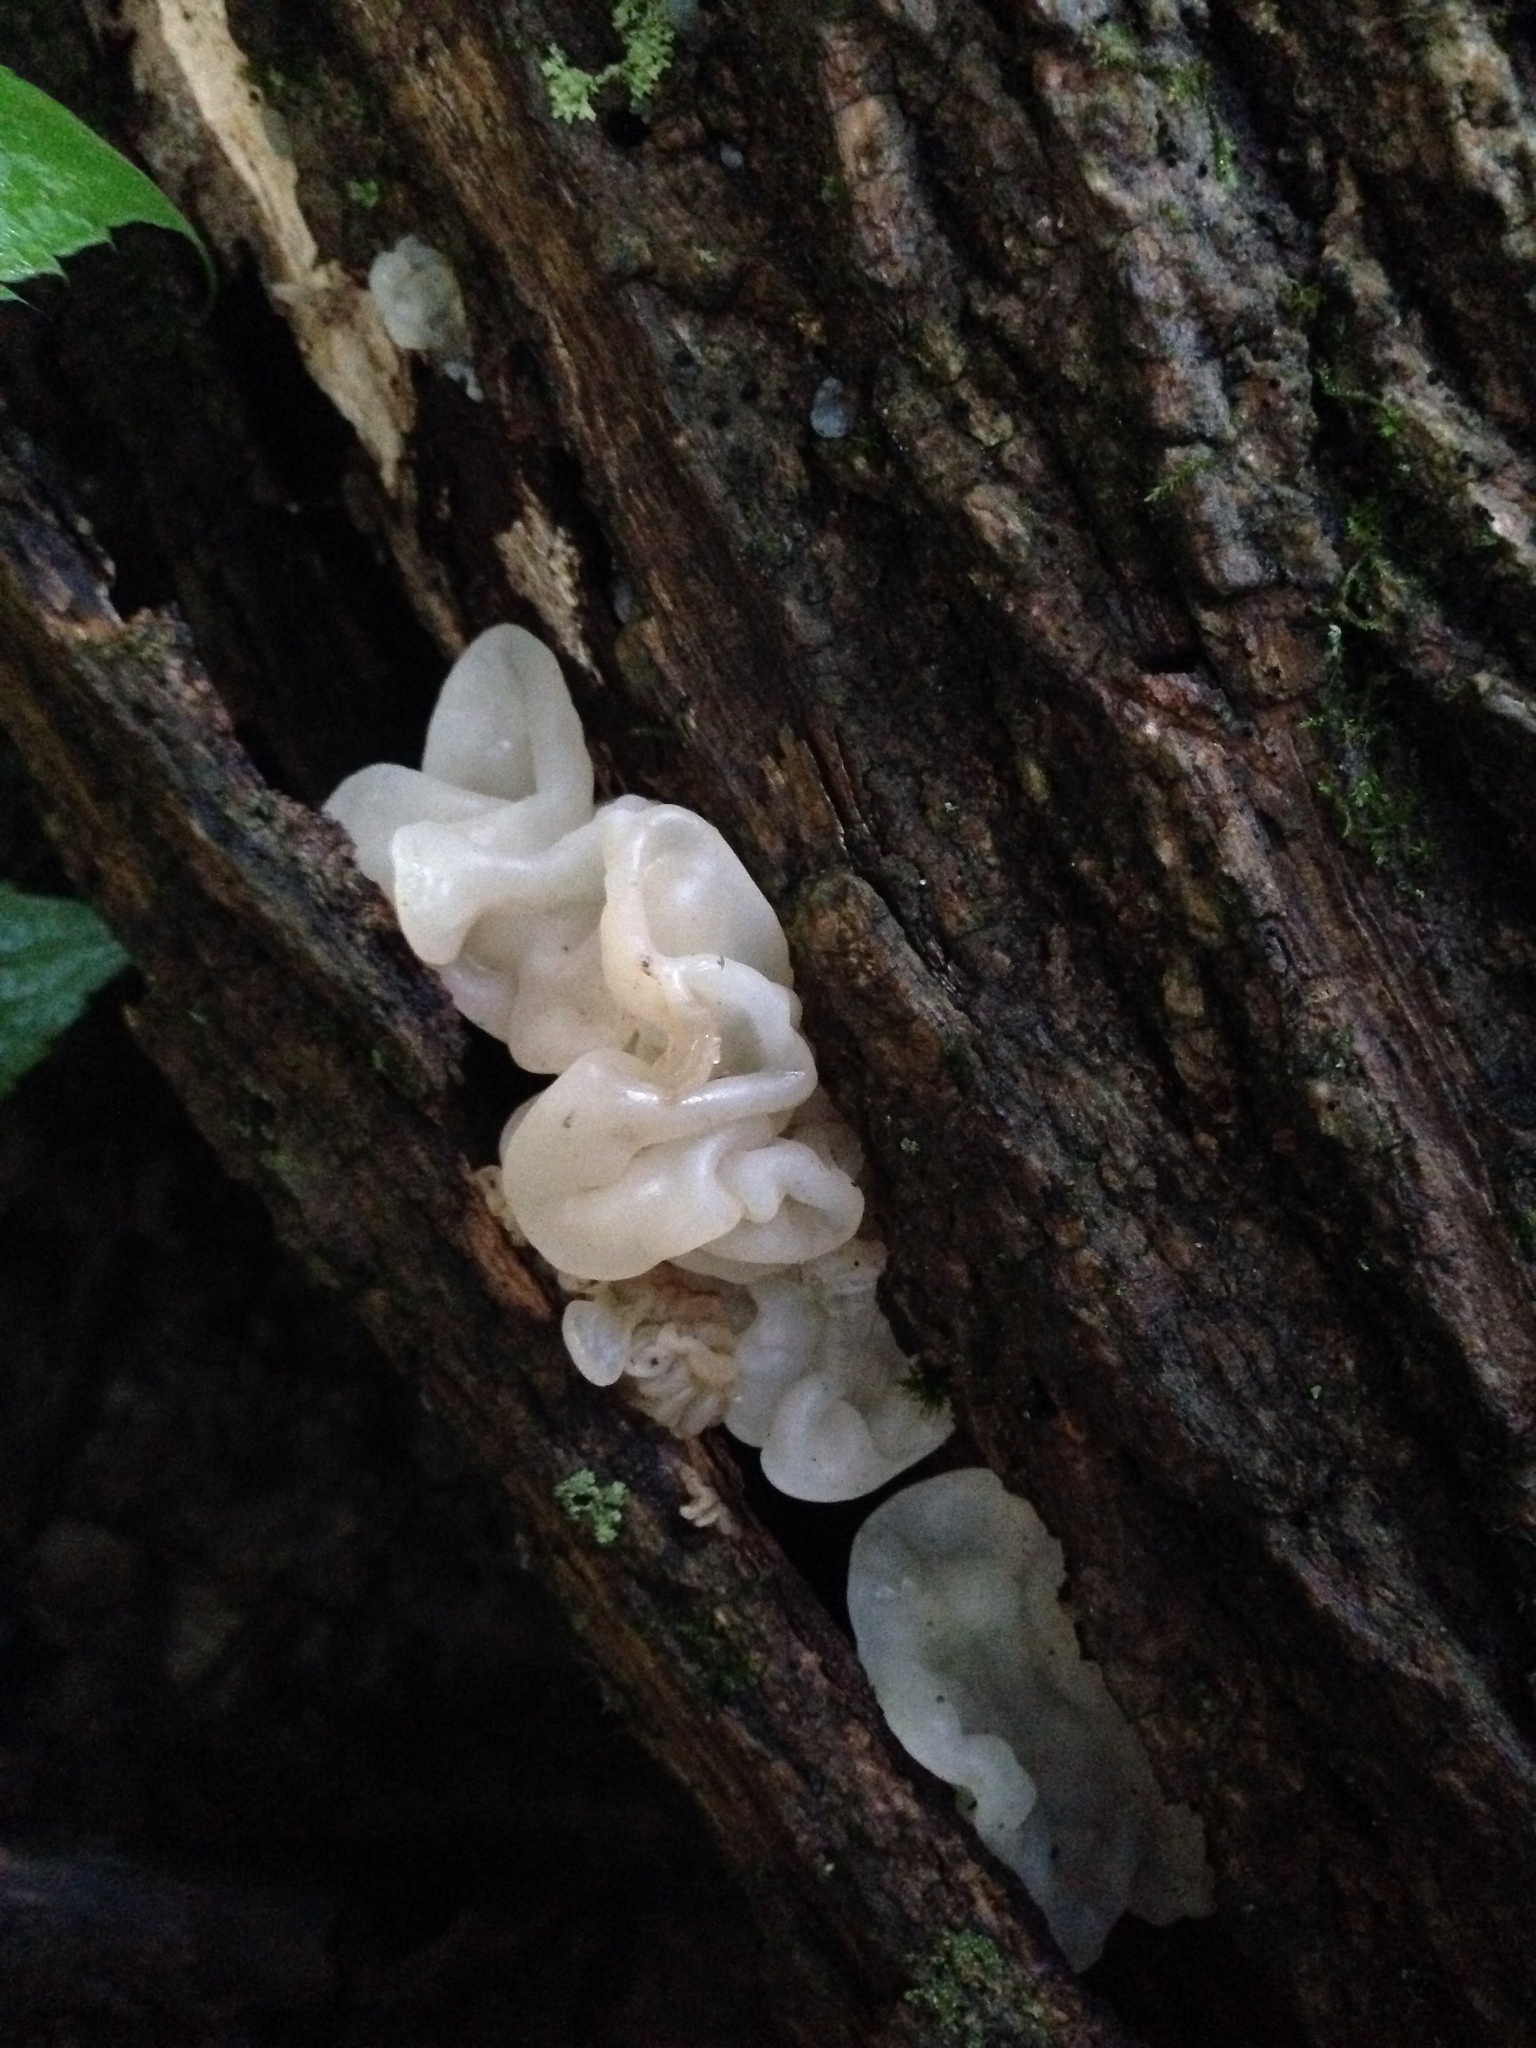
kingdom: Fungi
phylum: Basidiomycota
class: Agaricomycetes
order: Auriculariales
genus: Ductifera
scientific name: Ductifera pululahuana
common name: White jelly fungus
